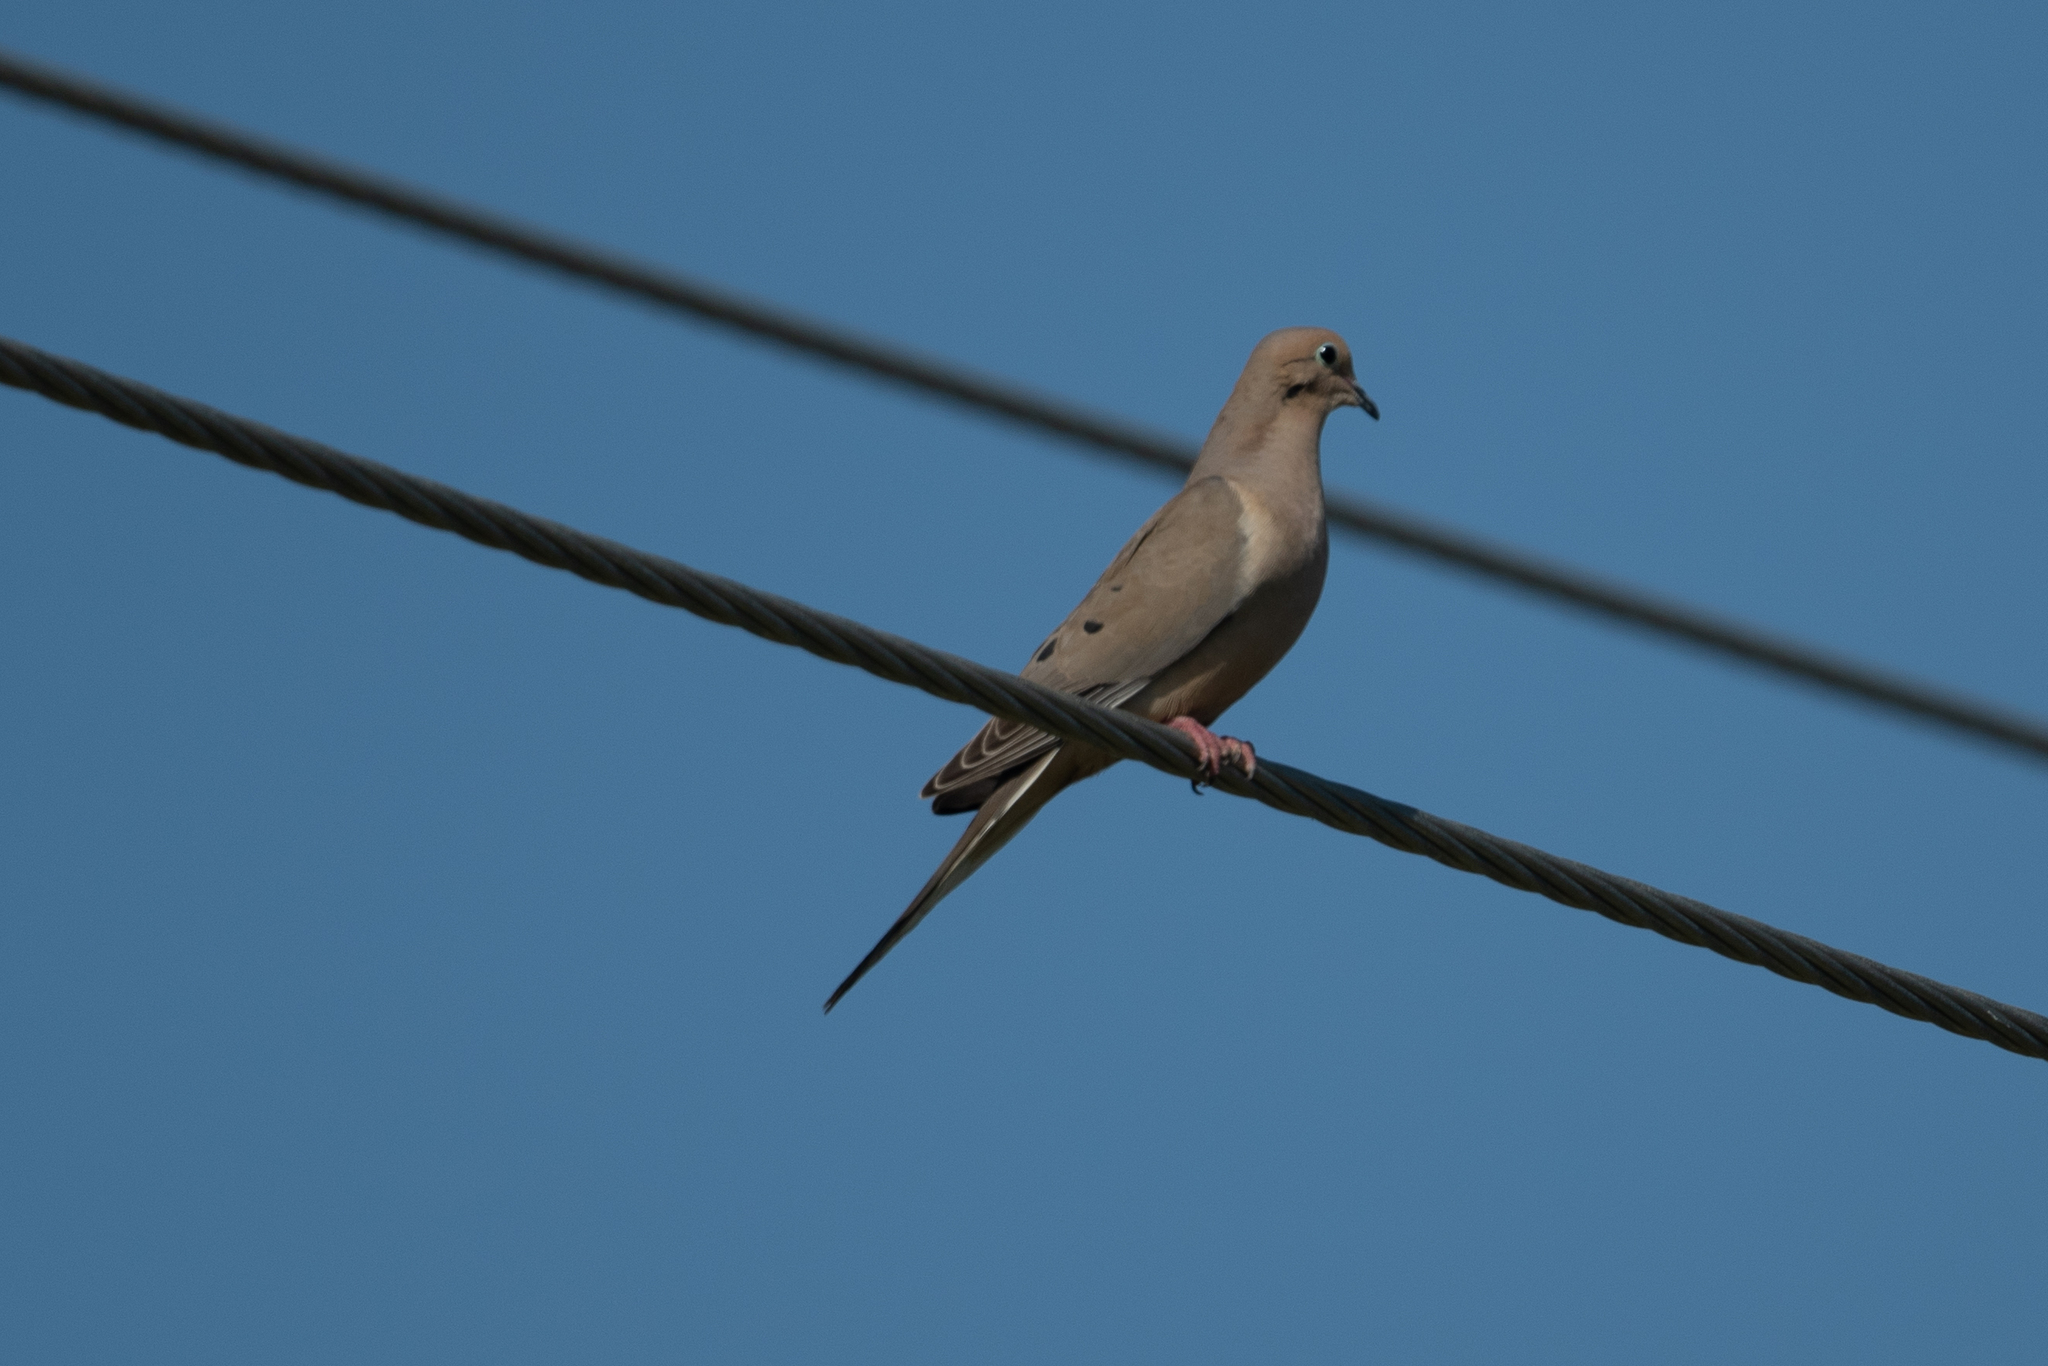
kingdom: Animalia
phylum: Chordata
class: Aves
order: Columbiformes
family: Columbidae
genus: Zenaida
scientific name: Zenaida macroura
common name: Mourning dove
